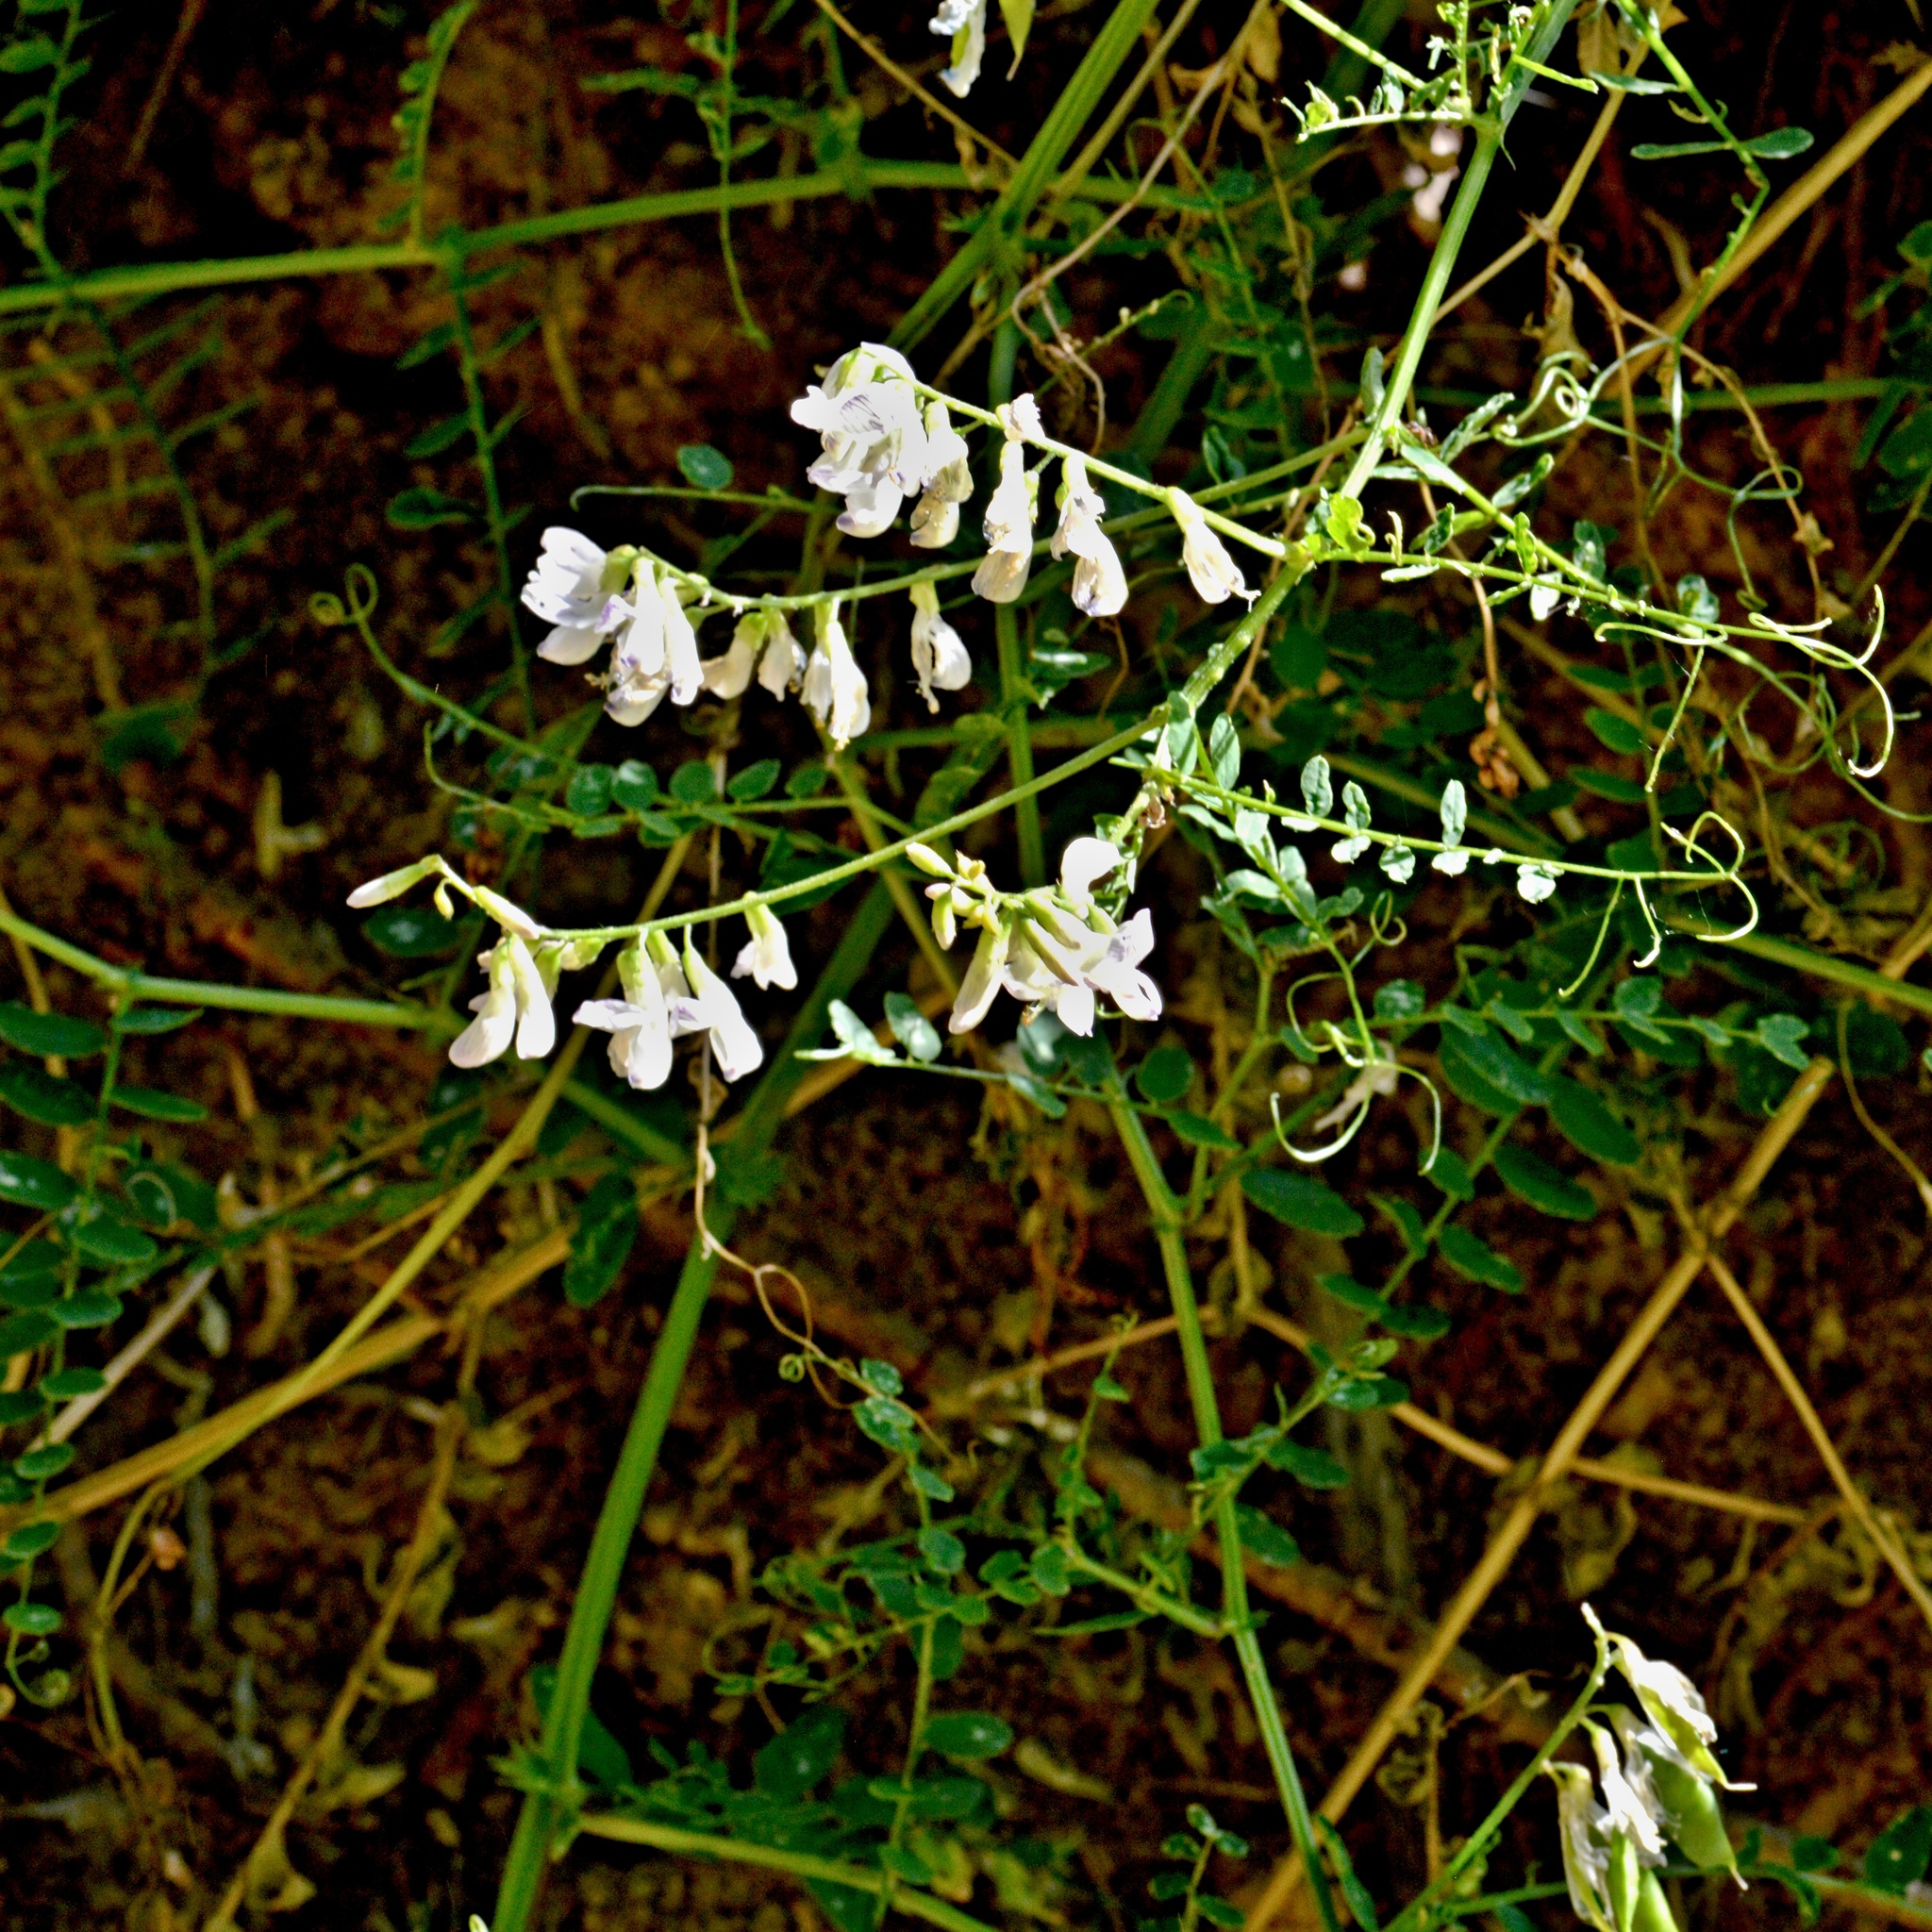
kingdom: Plantae
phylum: Tracheophyta
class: Magnoliopsida
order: Fabales
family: Fabaceae
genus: Vicia
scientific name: Vicia sylvatica
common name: Wood vetch
